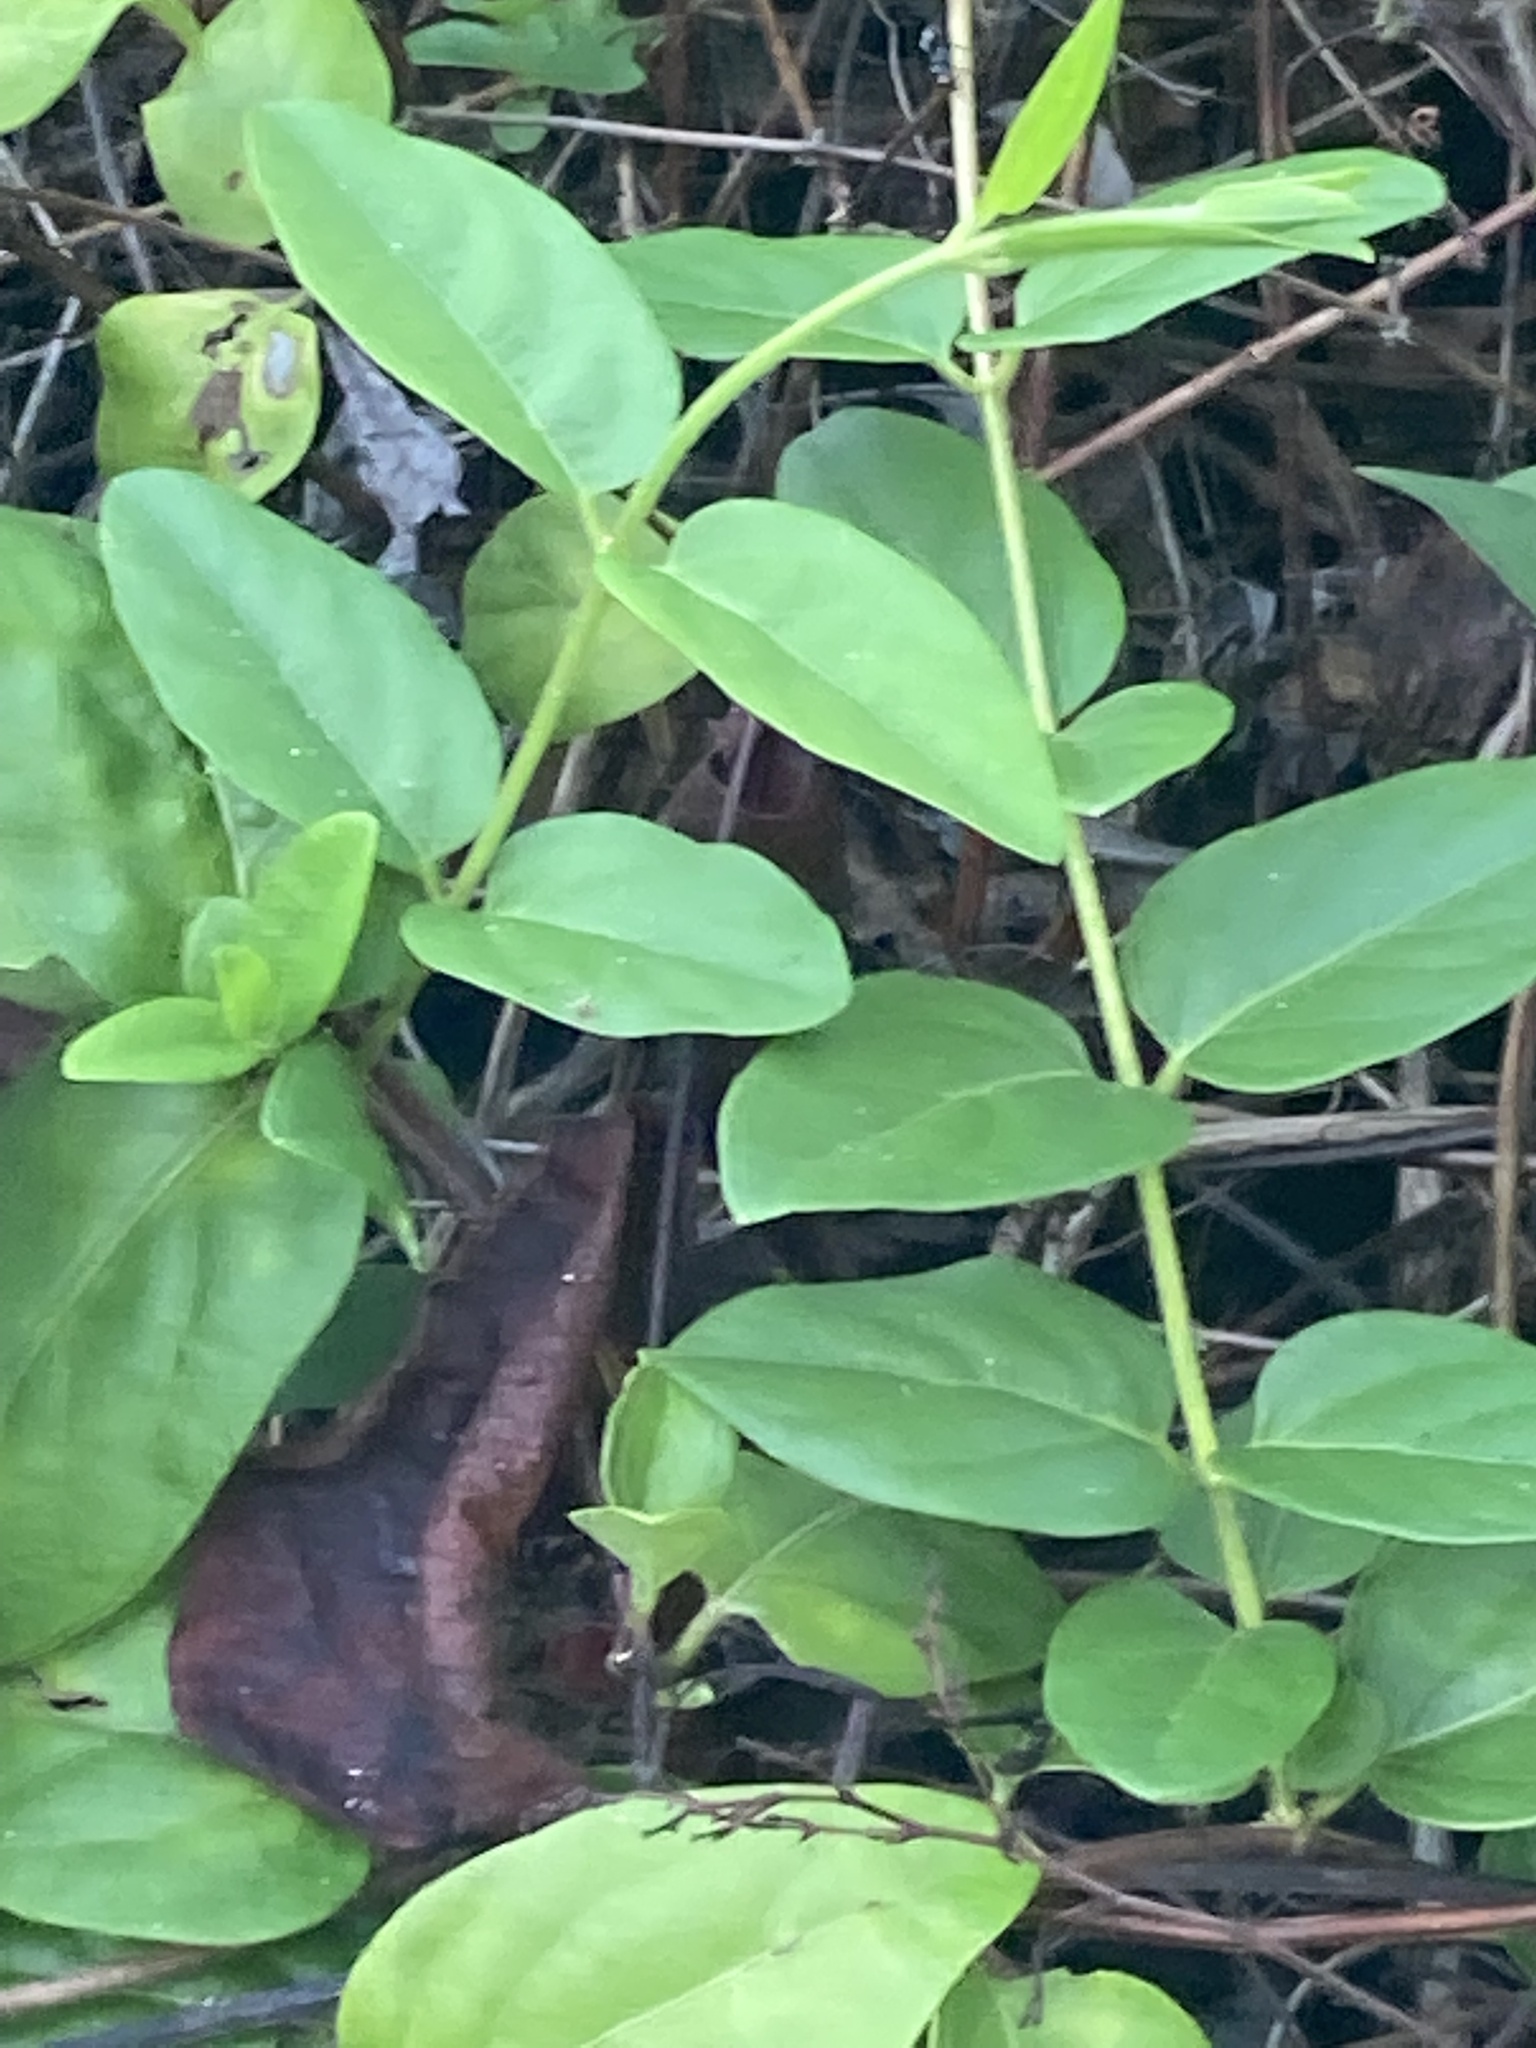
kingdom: Plantae
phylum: Tracheophyta
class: Magnoliopsida
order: Dipsacales
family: Caprifoliaceae
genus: Lonicera
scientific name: Lonicera japonica
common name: Japanese honeysuckle
